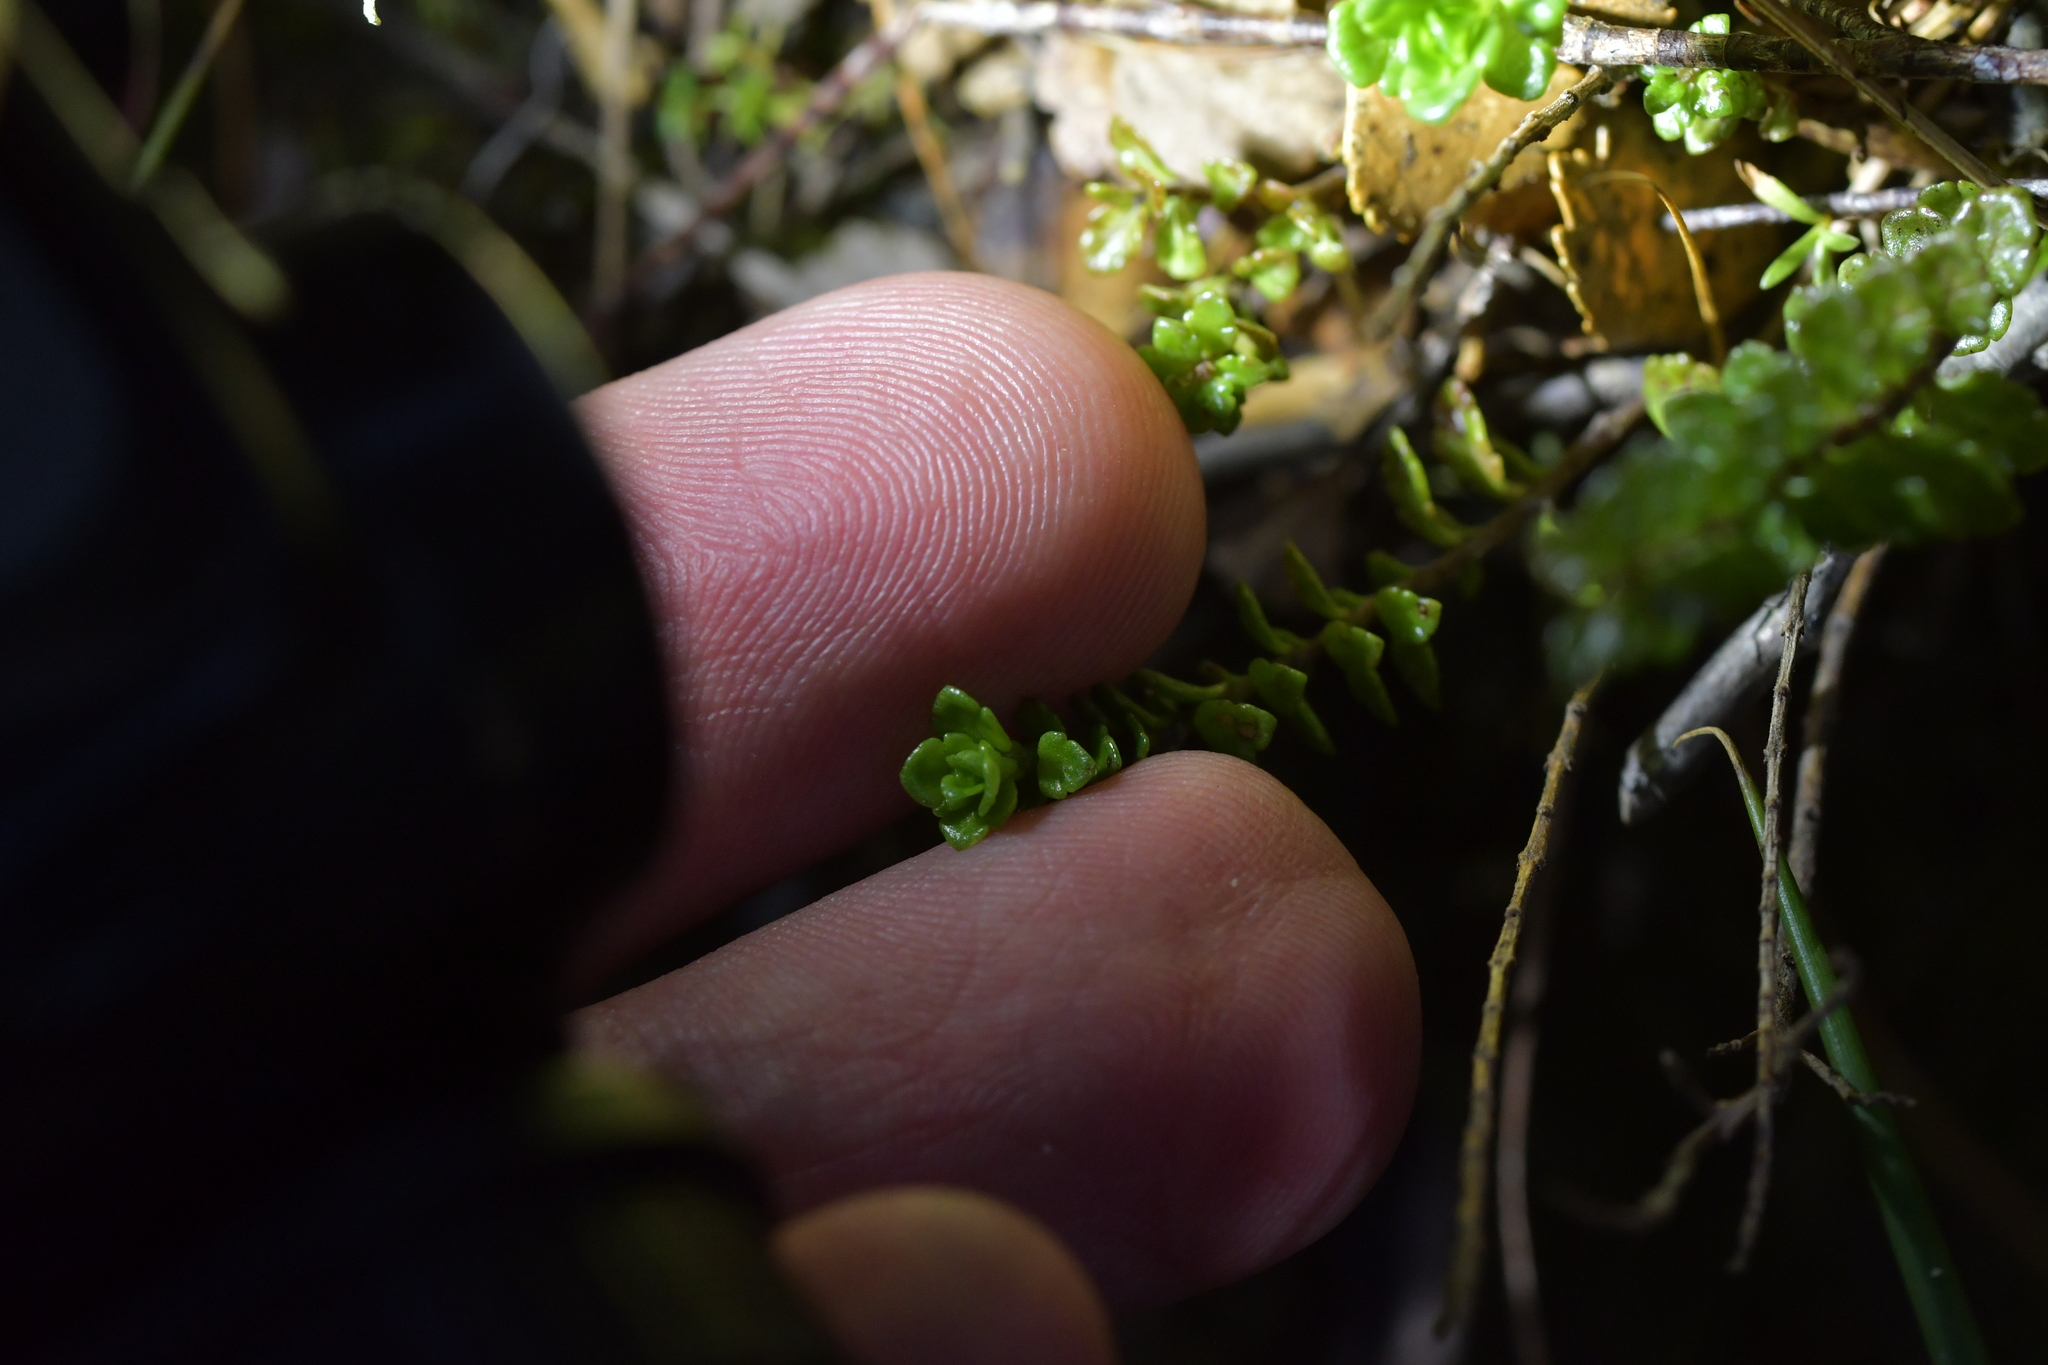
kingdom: Plantae
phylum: Tracheophyta
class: Magnoliopsida
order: Lamiales
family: Orobanchaceae
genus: Euphrasia
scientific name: Euphrasia cuneata
